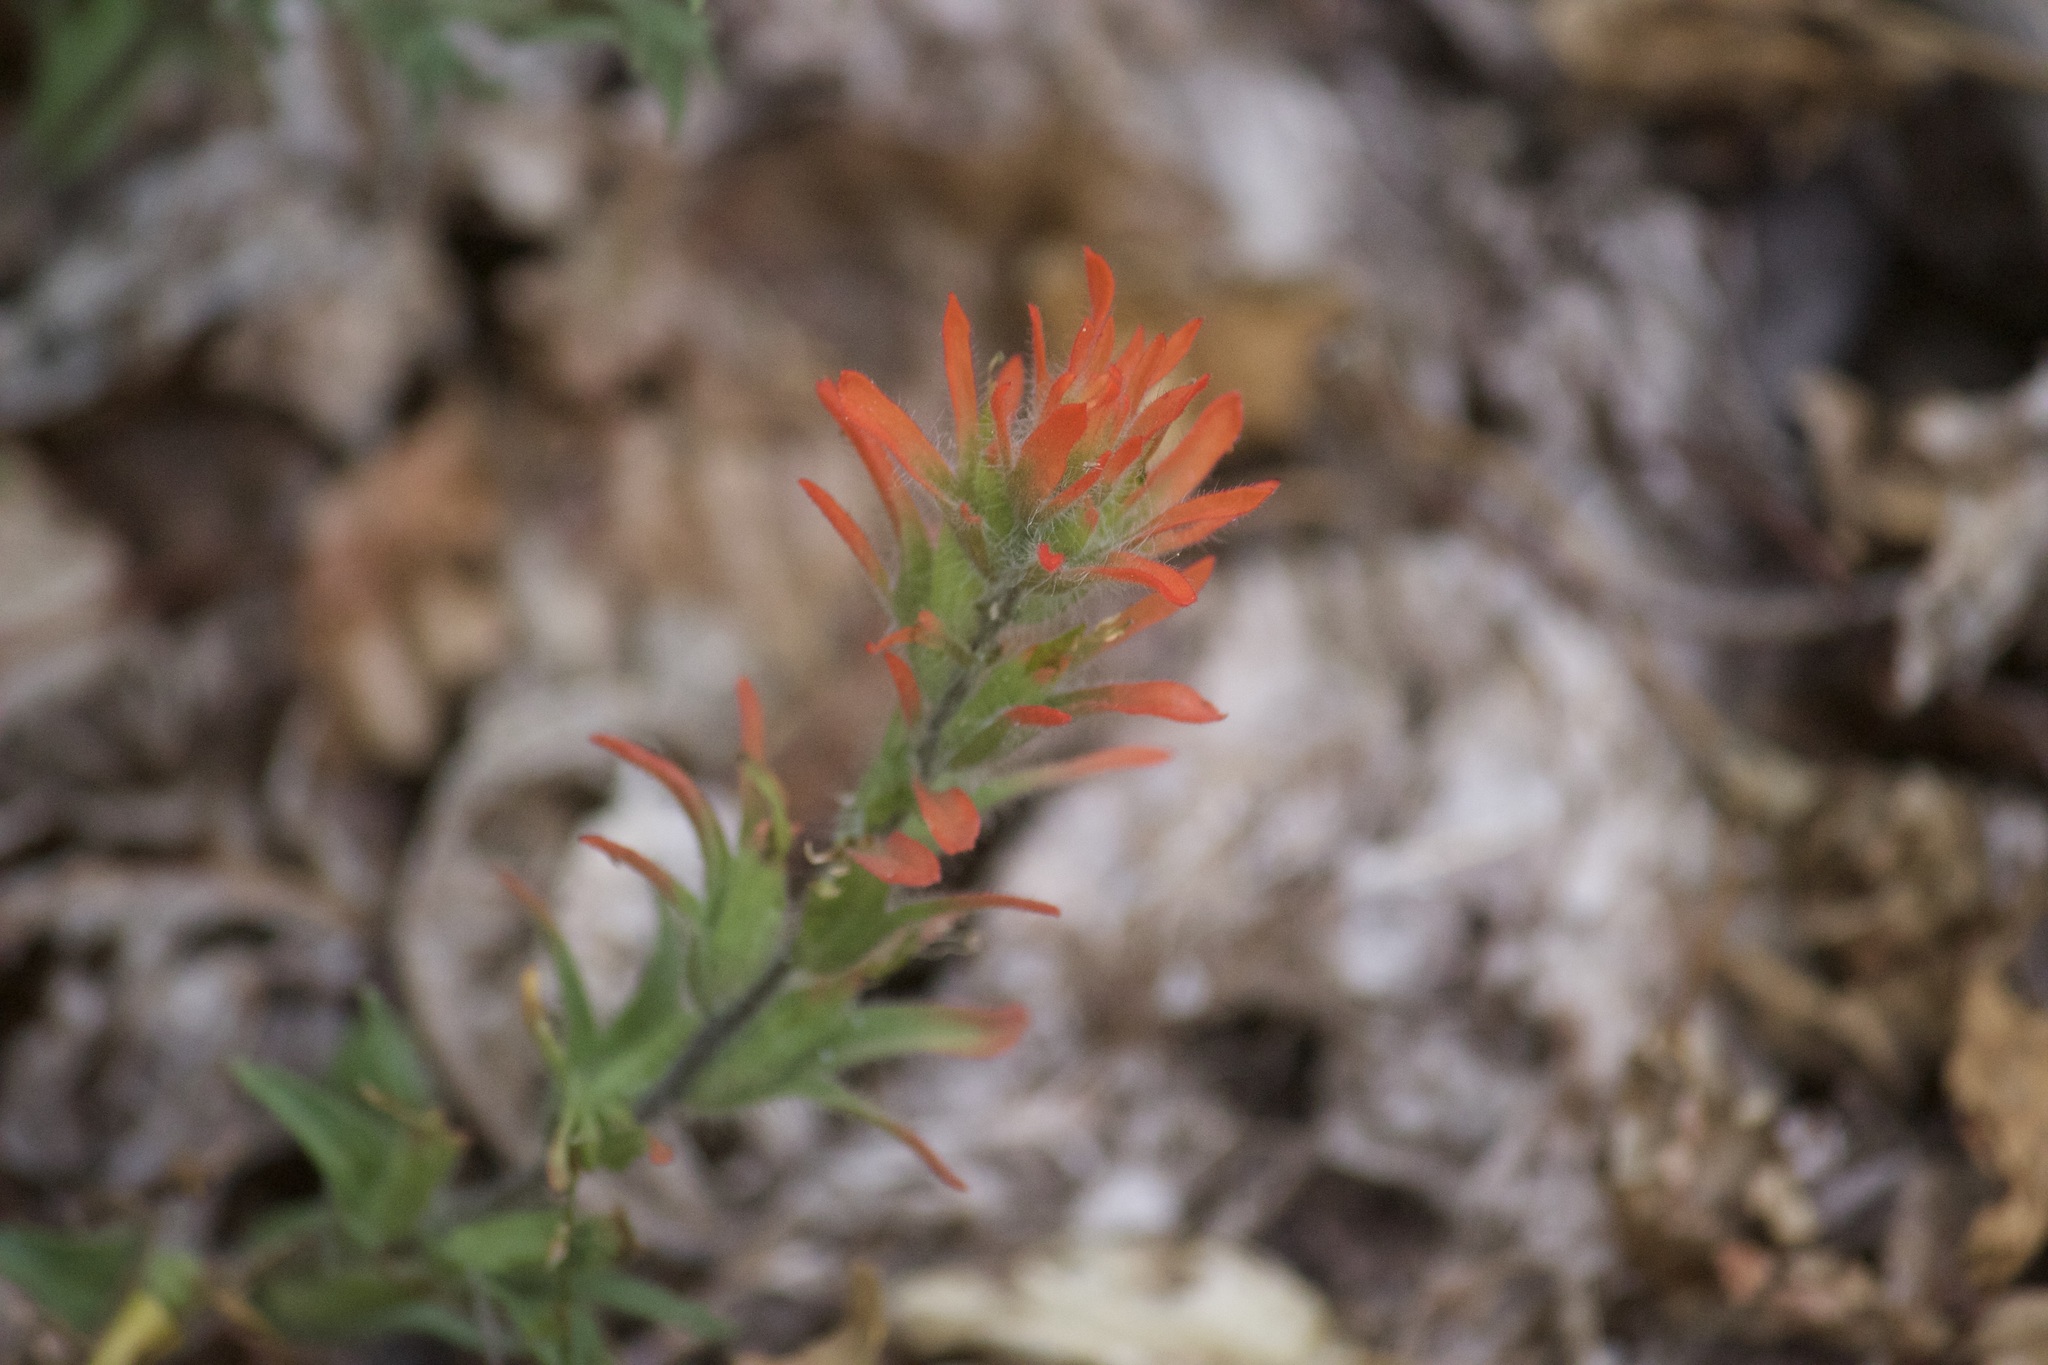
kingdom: Plantae
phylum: Tracheophyta
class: Magnoliopsida
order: Lamiales
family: Orobanchaceae
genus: Castilleja
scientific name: Castilleja applegatei
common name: Wavy-leaf paintbrush
